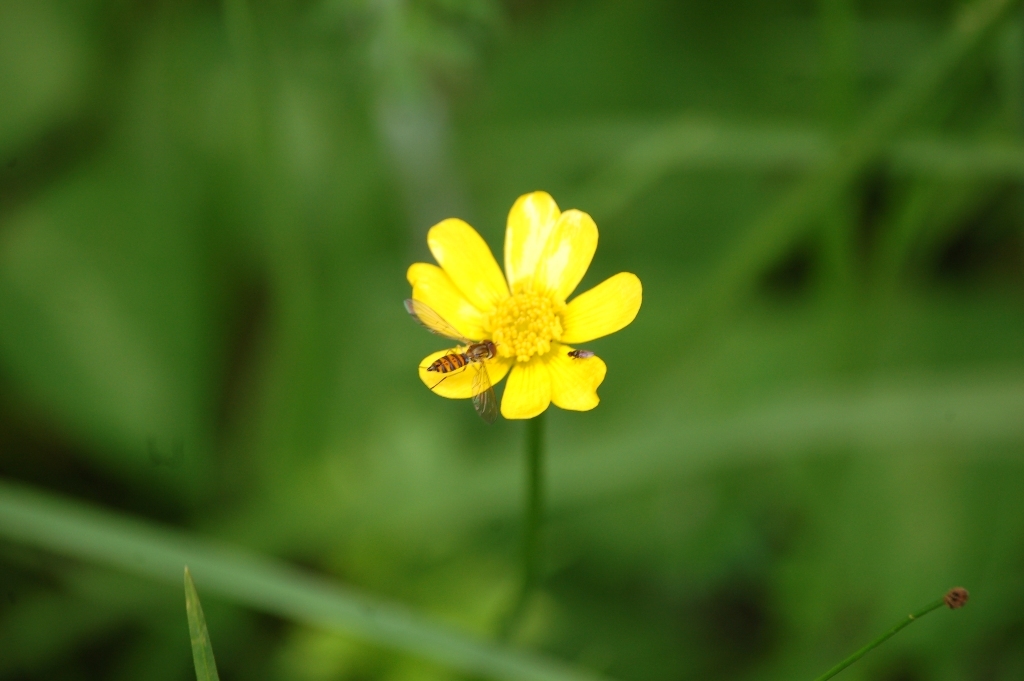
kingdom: Plantae
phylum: Tracheophyta
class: Magnoliopsida
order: Ranunculales
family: Ranunculaceae
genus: Ranunculus
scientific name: Ranunculus petiolaris
